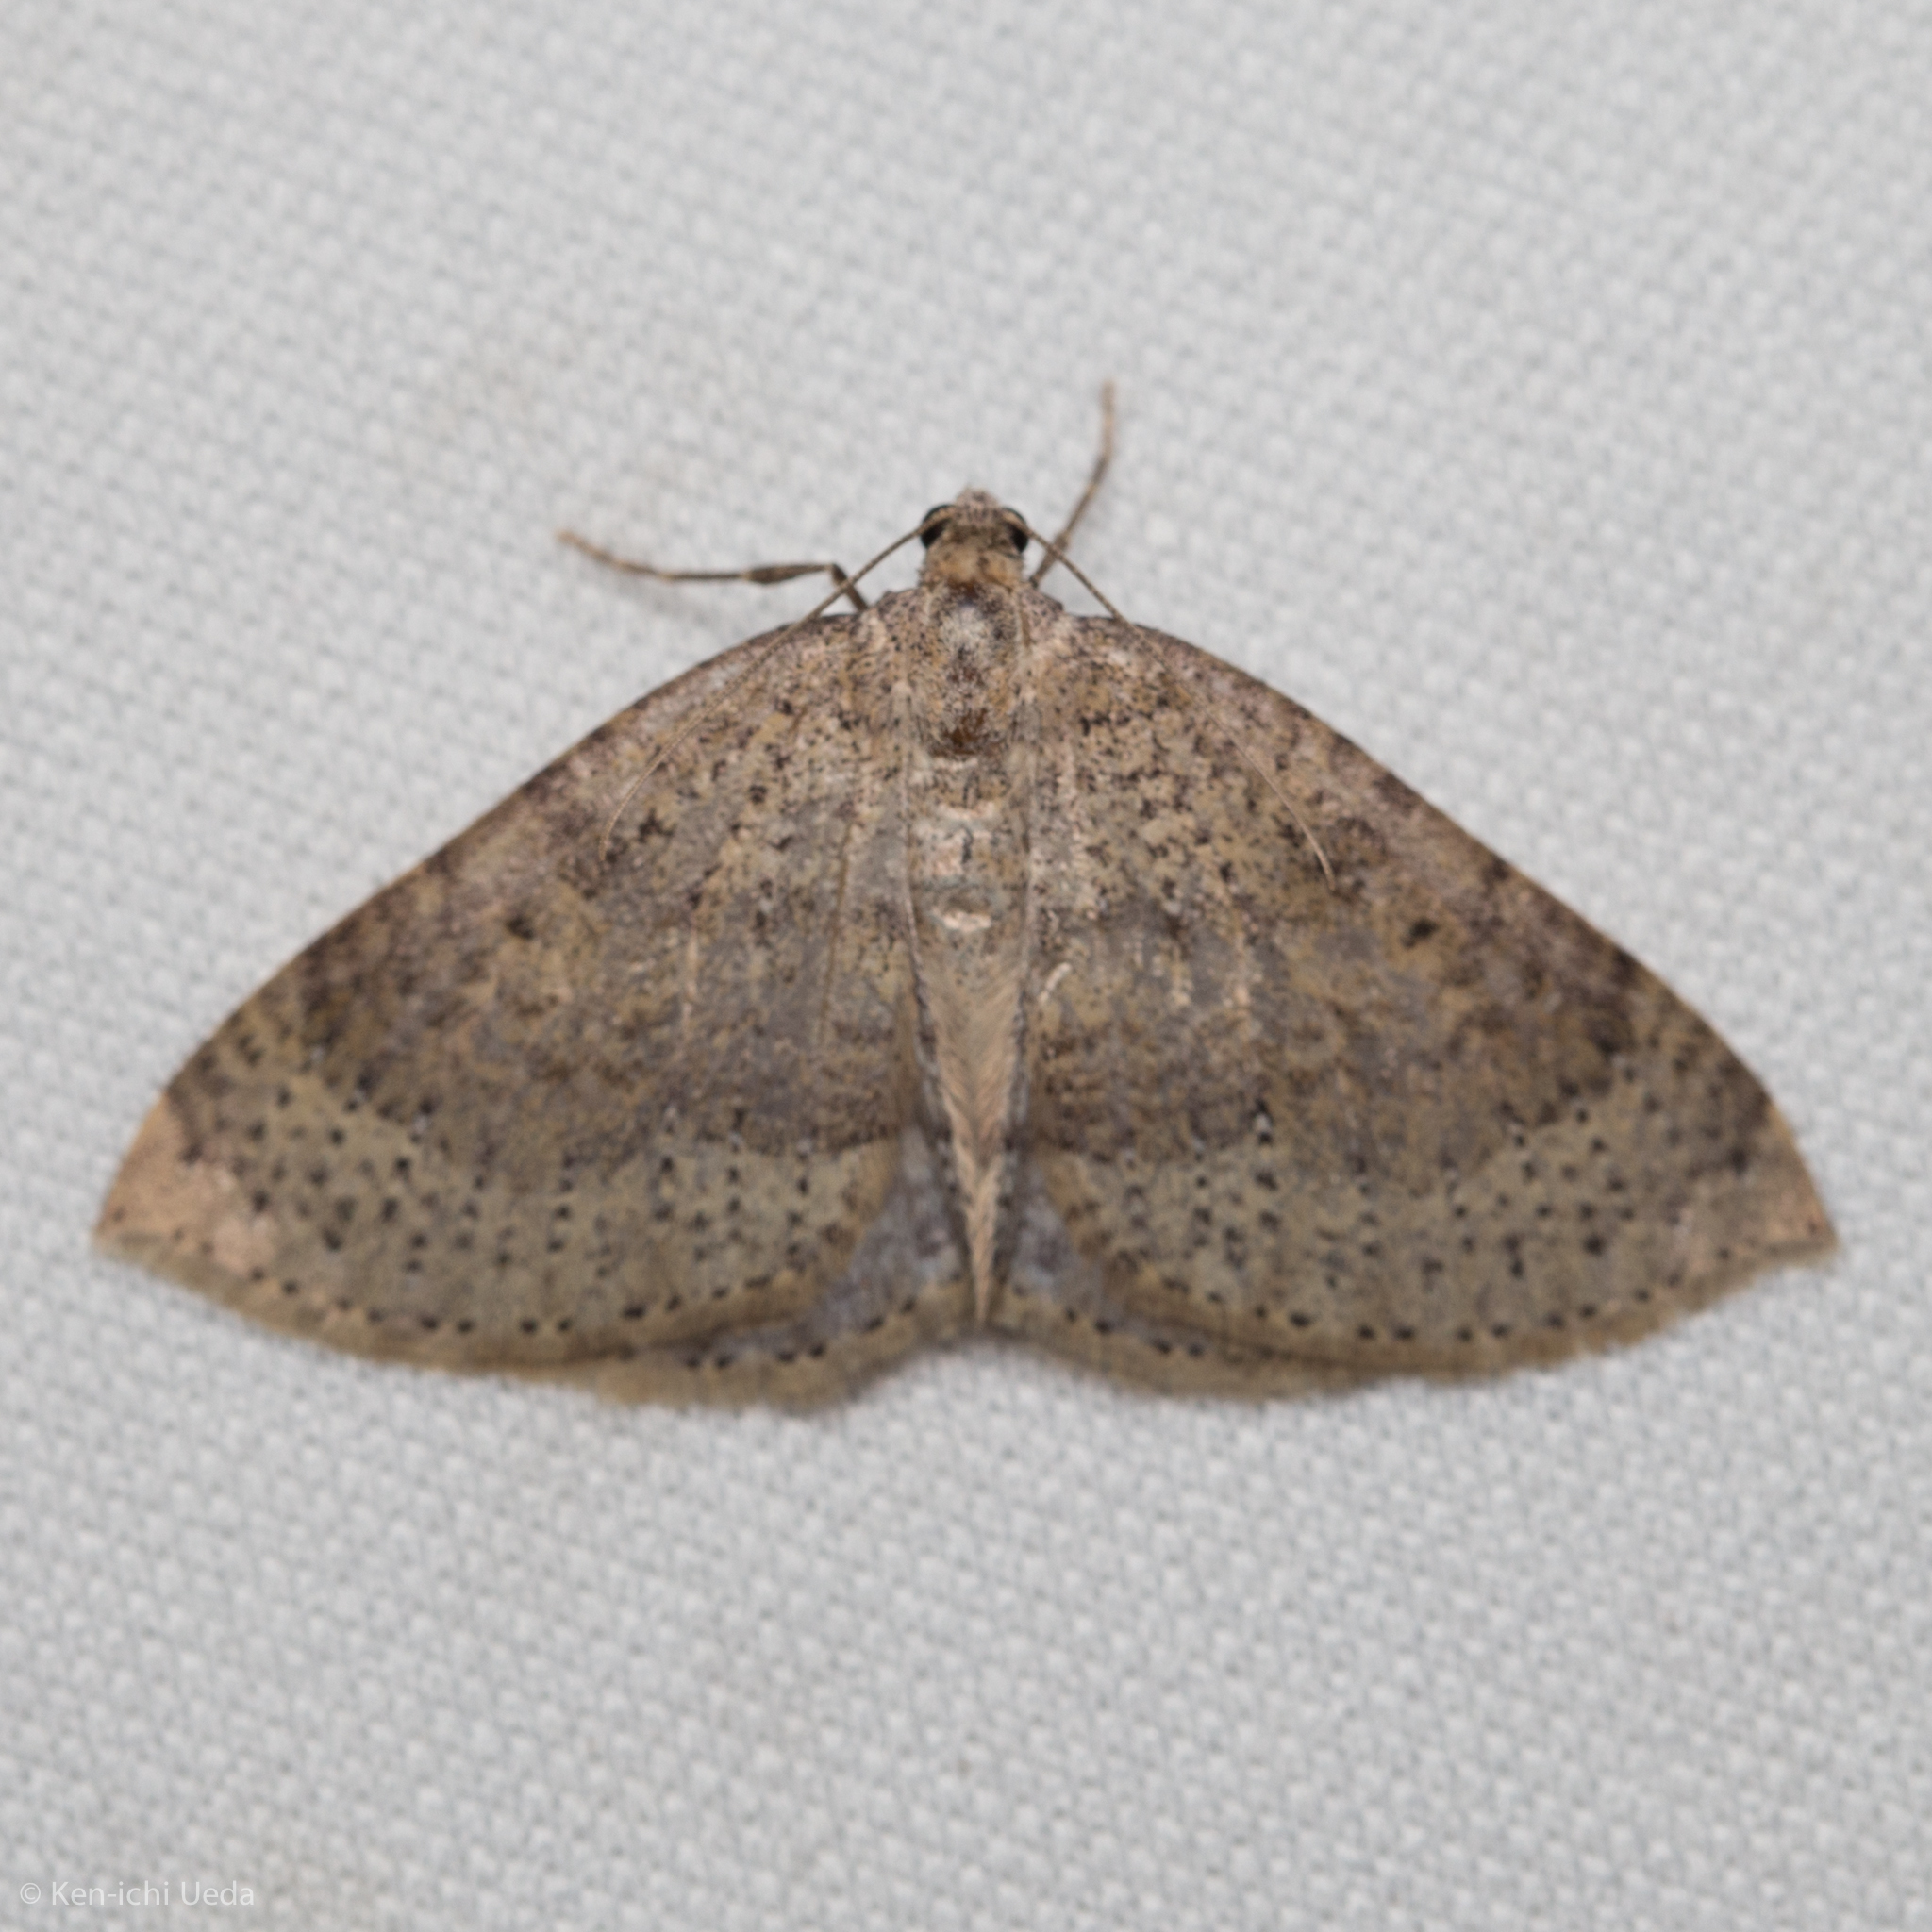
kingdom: Animalia
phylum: Arthropoda
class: Insecta
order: Lepidoptera
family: Geometridae
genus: Archirhoe
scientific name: Archirhoe multipunctata
